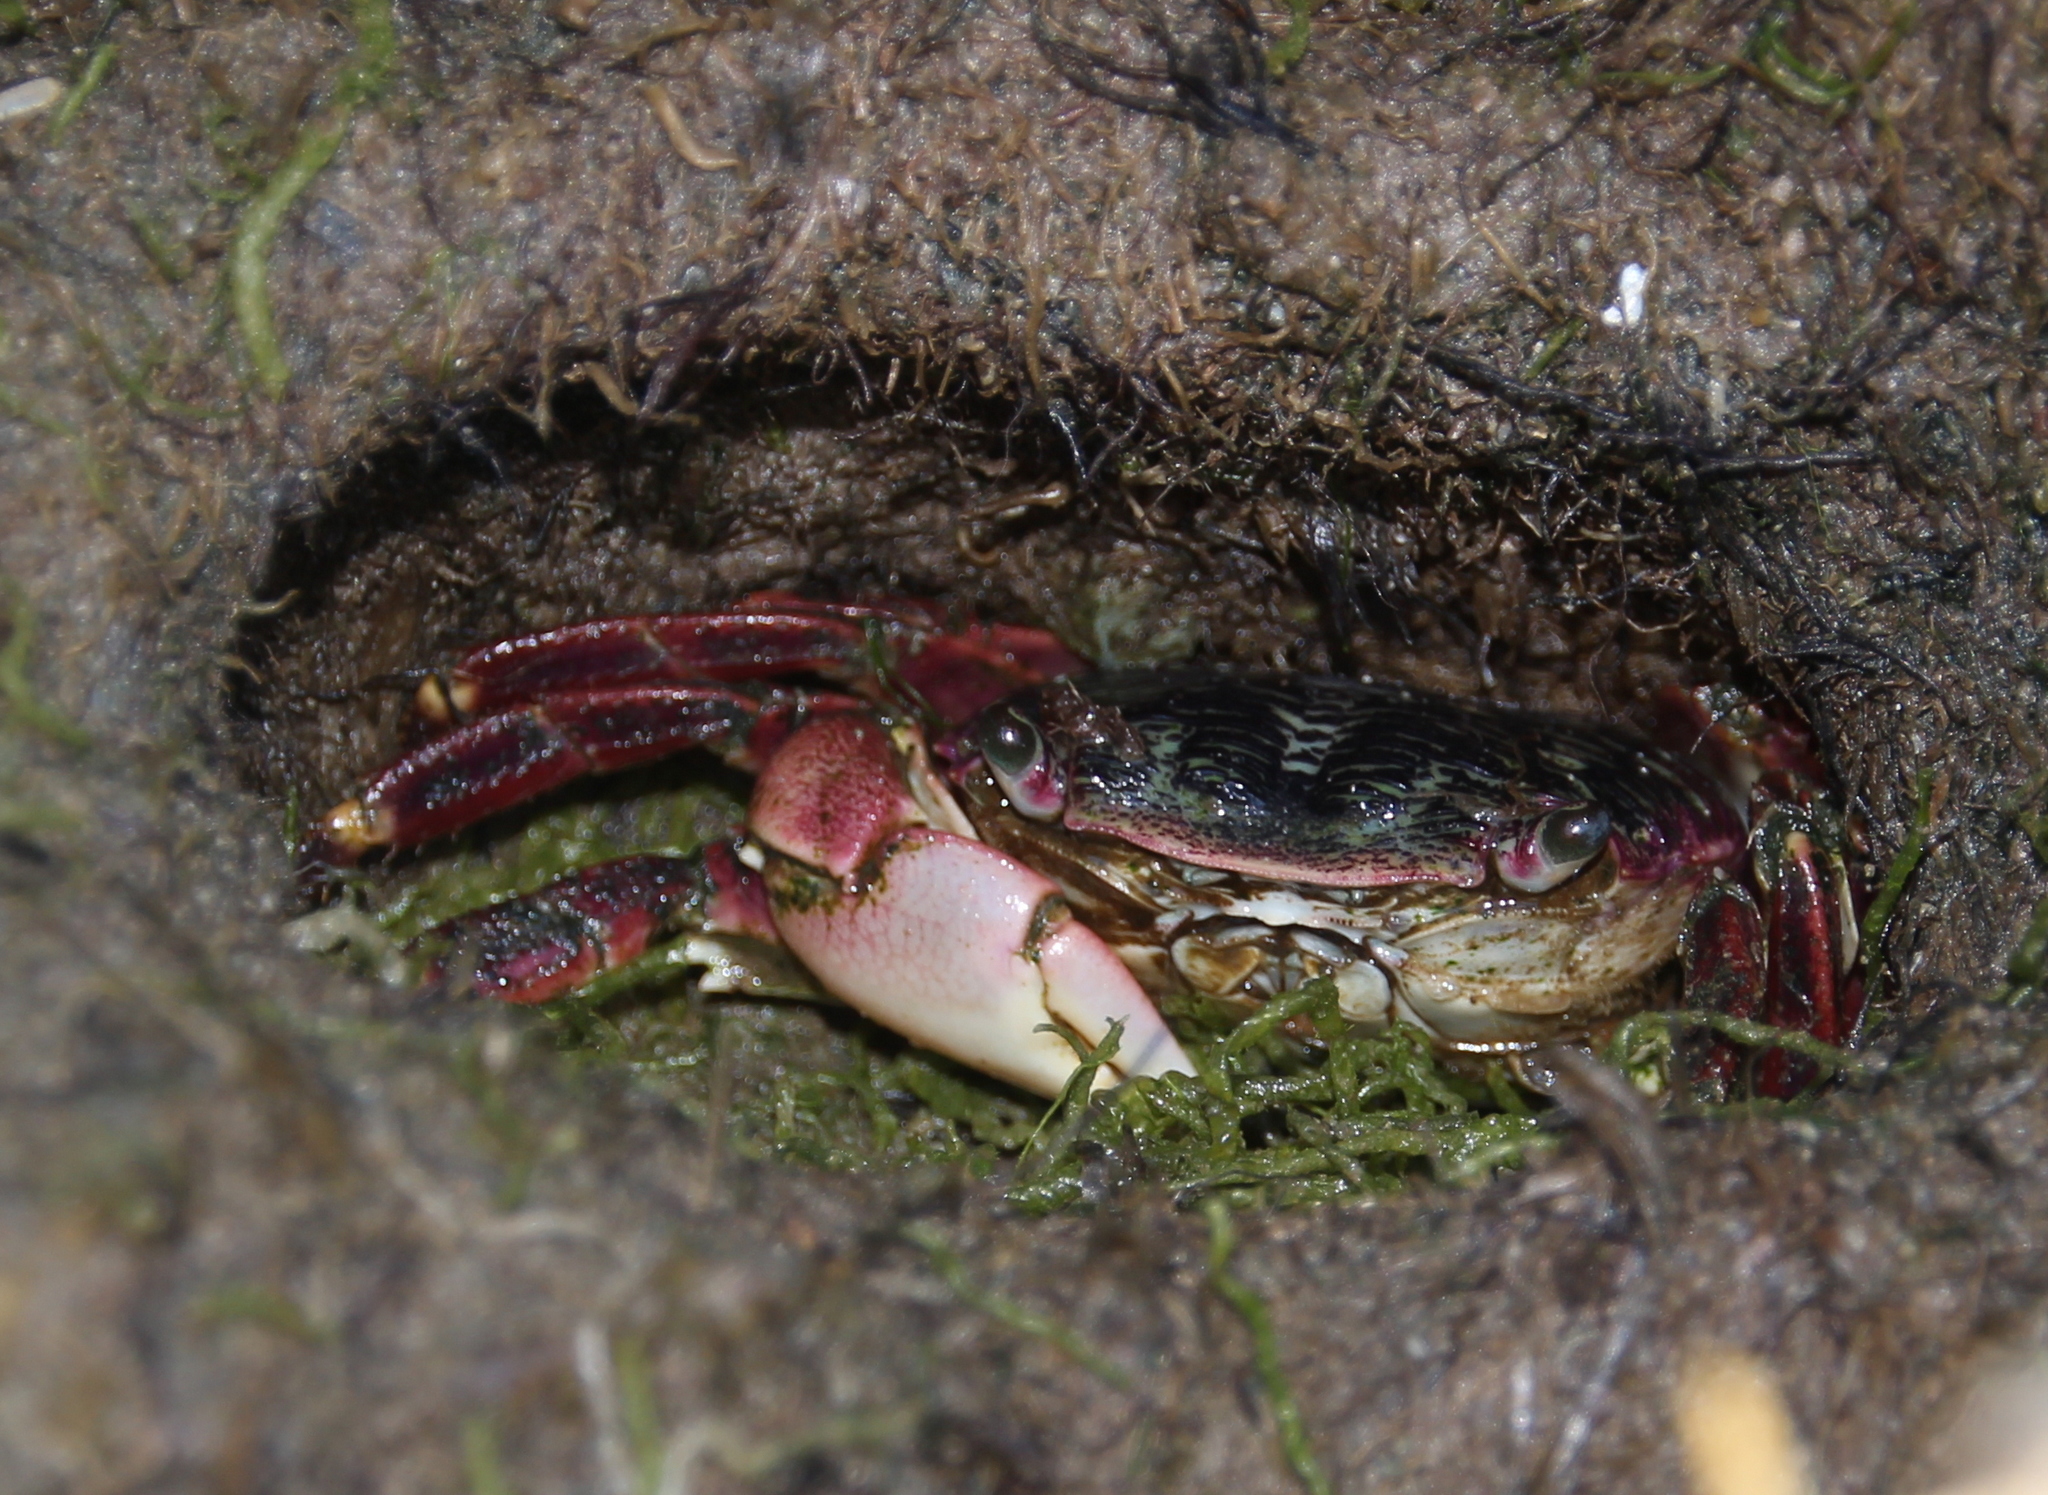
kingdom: Animalia
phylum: Arthropoda
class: Malacostraca
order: Decapoda
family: Grapsidae
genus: Pachygrapsus
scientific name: Pachygrapsus crassipes
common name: Striped shore crab
